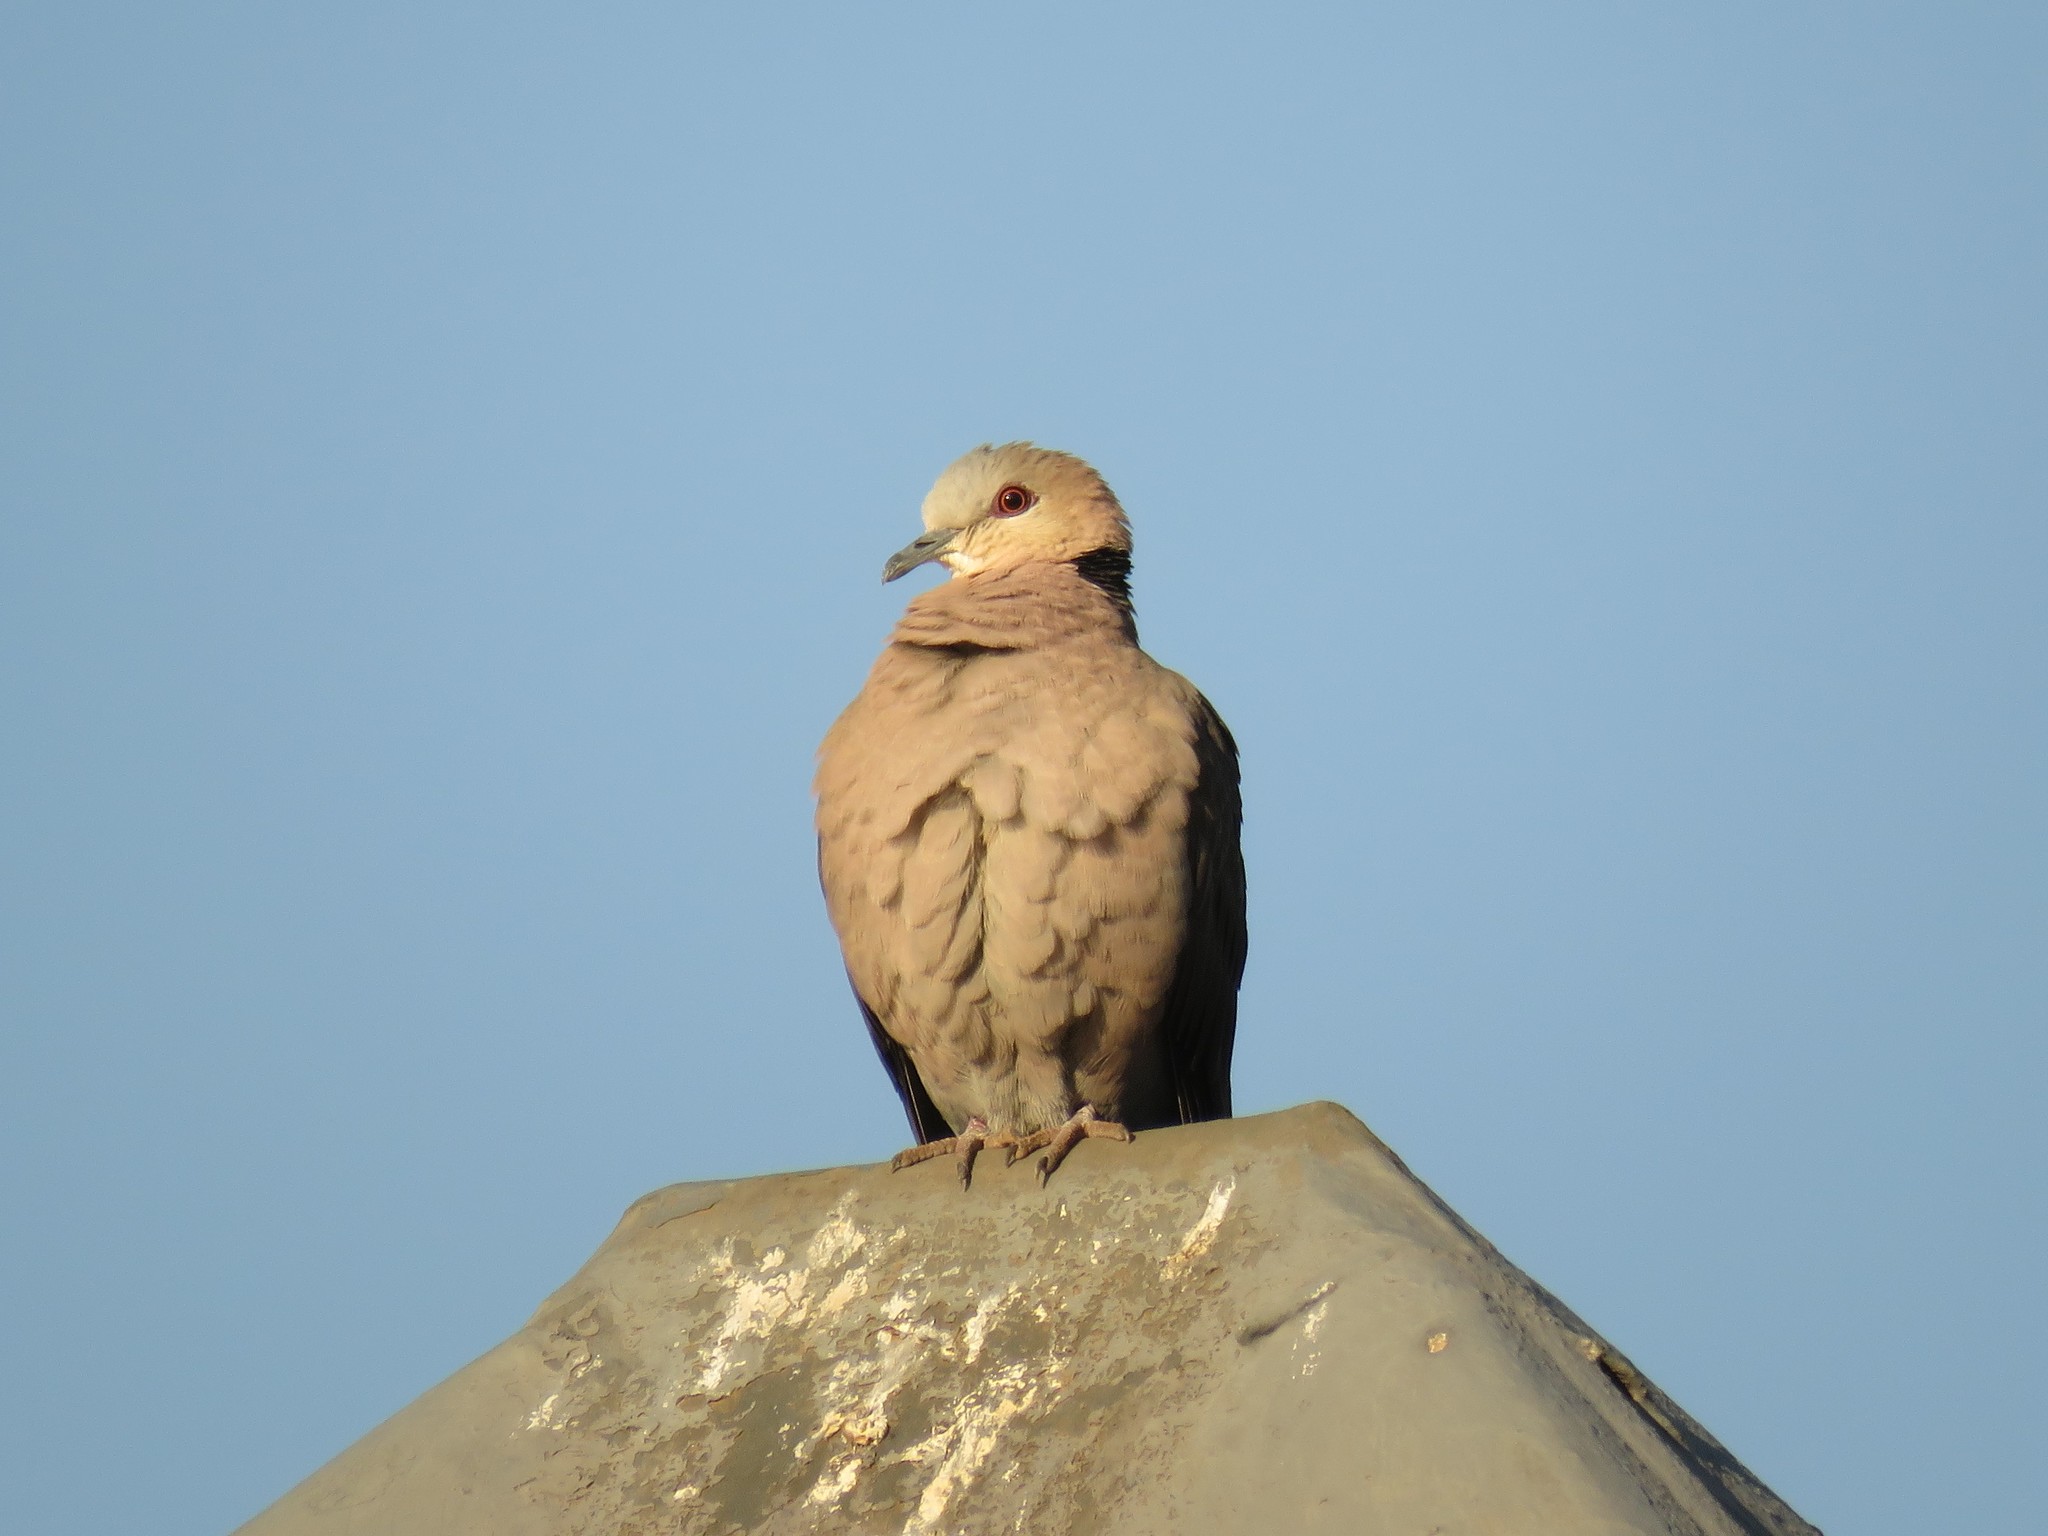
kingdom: Animalia
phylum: Chordata
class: Aves
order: Columbiformes
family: Columbidae
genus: Streptopelia
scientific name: Streptopelia semitorquata
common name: Red-eyed dove
